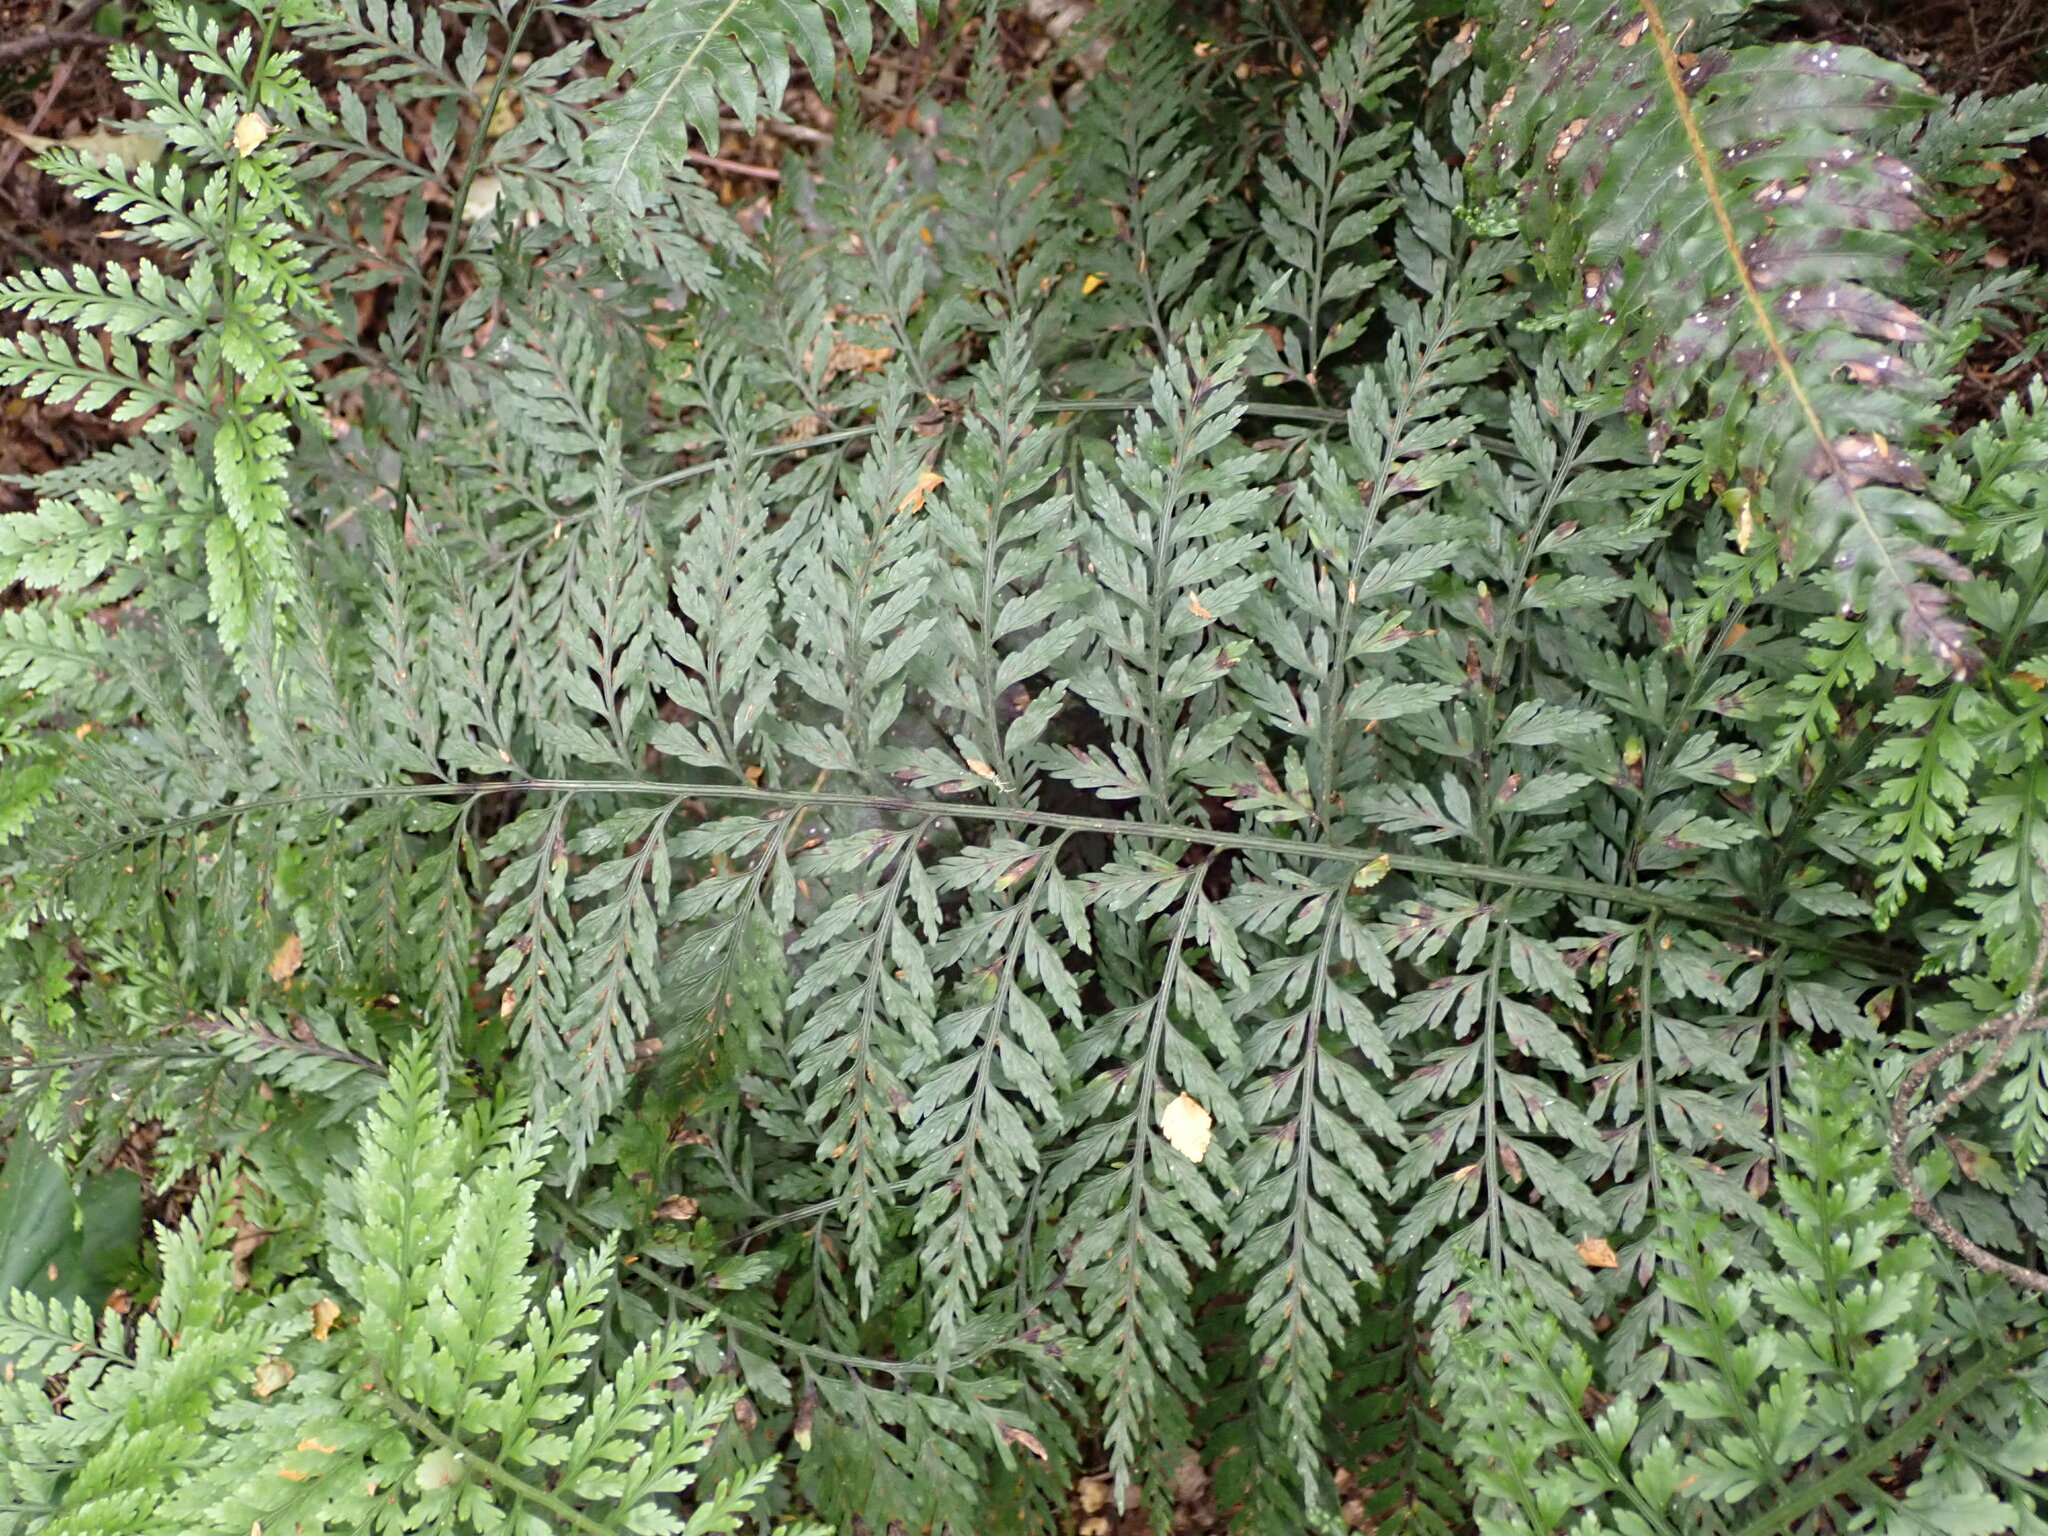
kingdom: Plantae
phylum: Tracheophyta
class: Polypodiopsida
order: Polypodiales
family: Aspleniaceae
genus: Asplenium
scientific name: Asplenium
